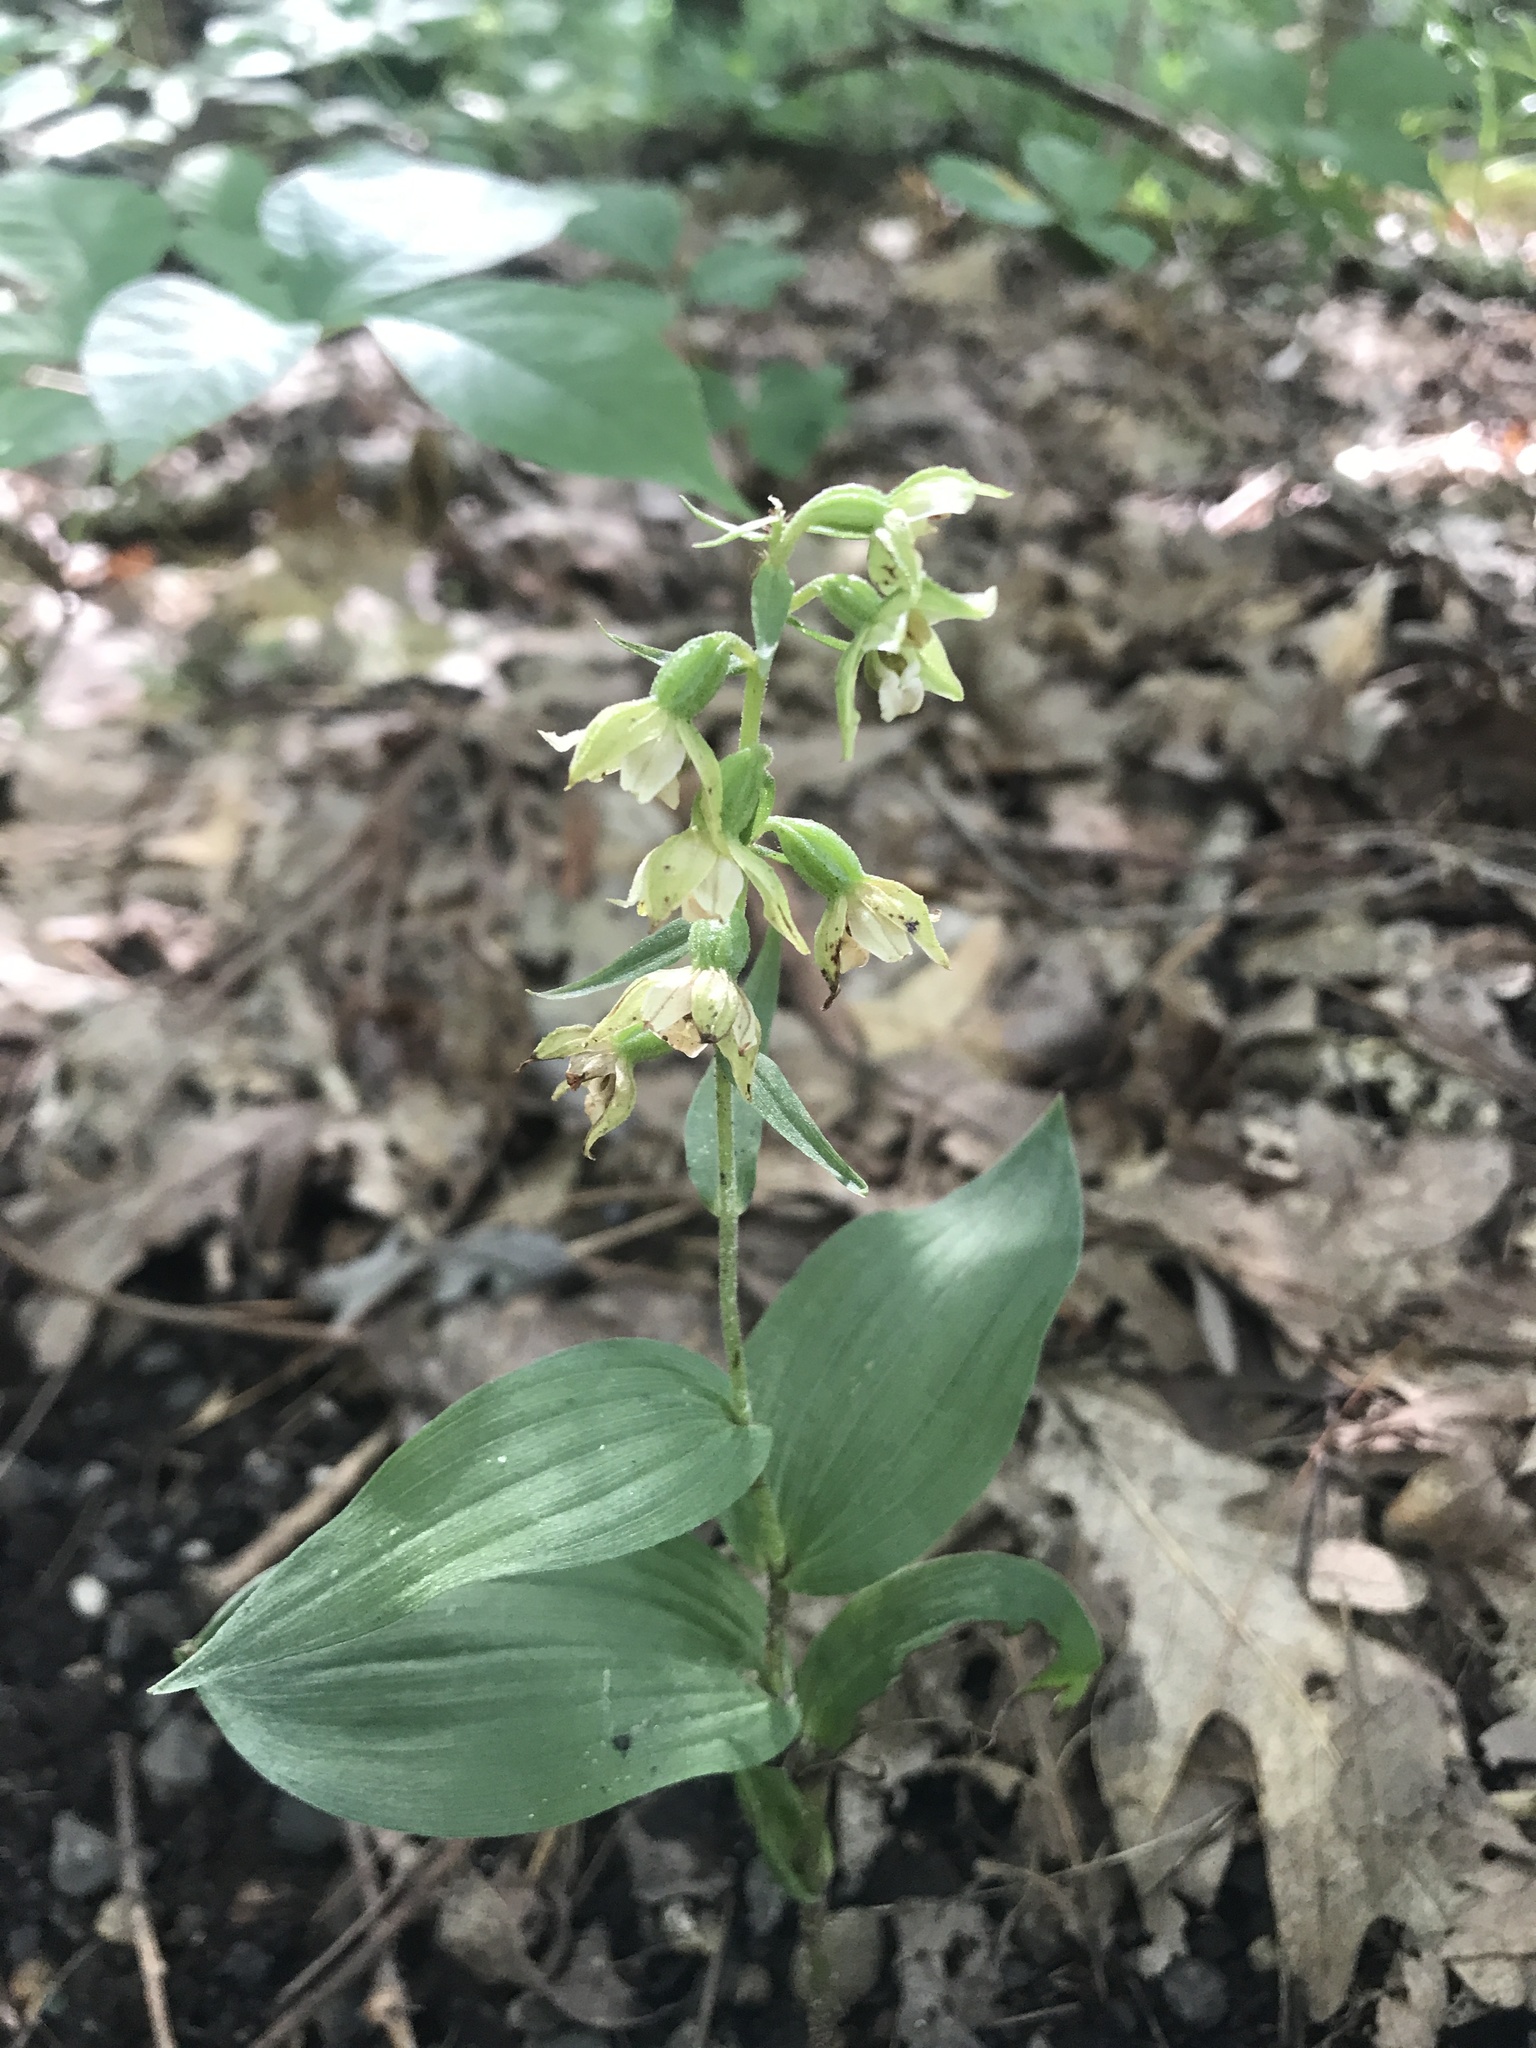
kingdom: Plantae
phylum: Tracheophyta
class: Liliopsida
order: Asparagales
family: Orchidaceae
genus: Epipactis
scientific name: Epipactis helleborine
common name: Broad-leaved helleborine
